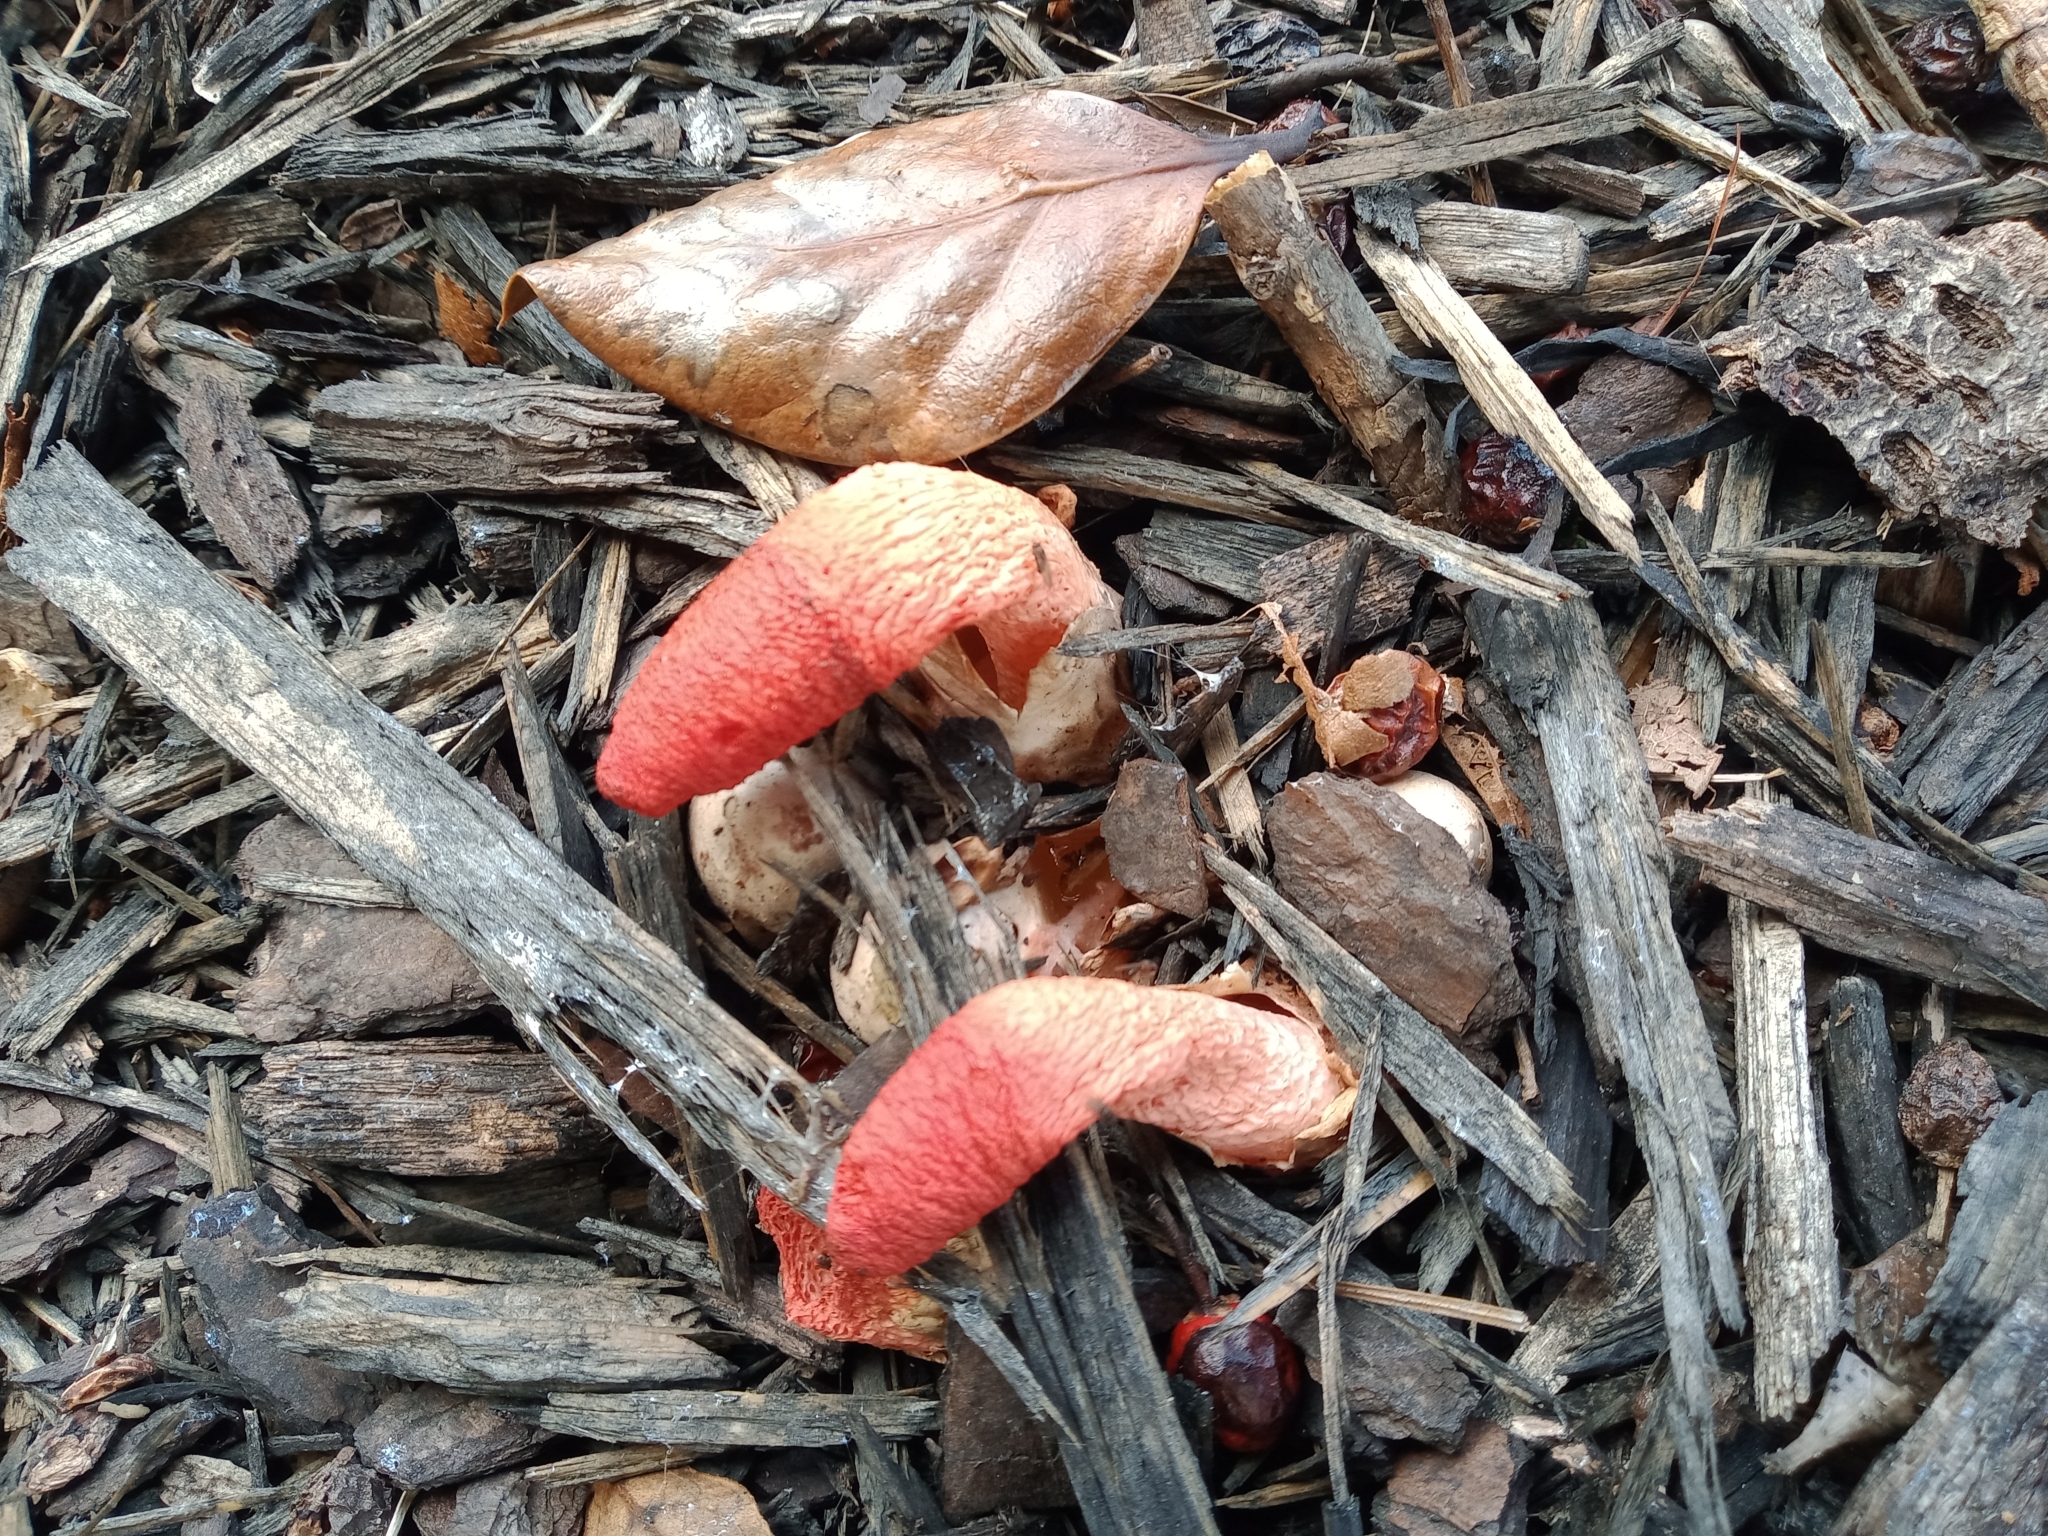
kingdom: Fungi
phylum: Basidiomycota
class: Agaricomycetes
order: Phallales
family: Phallaceae
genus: Mutinus
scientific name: Mutinus elegans
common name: Devil's dipstick
